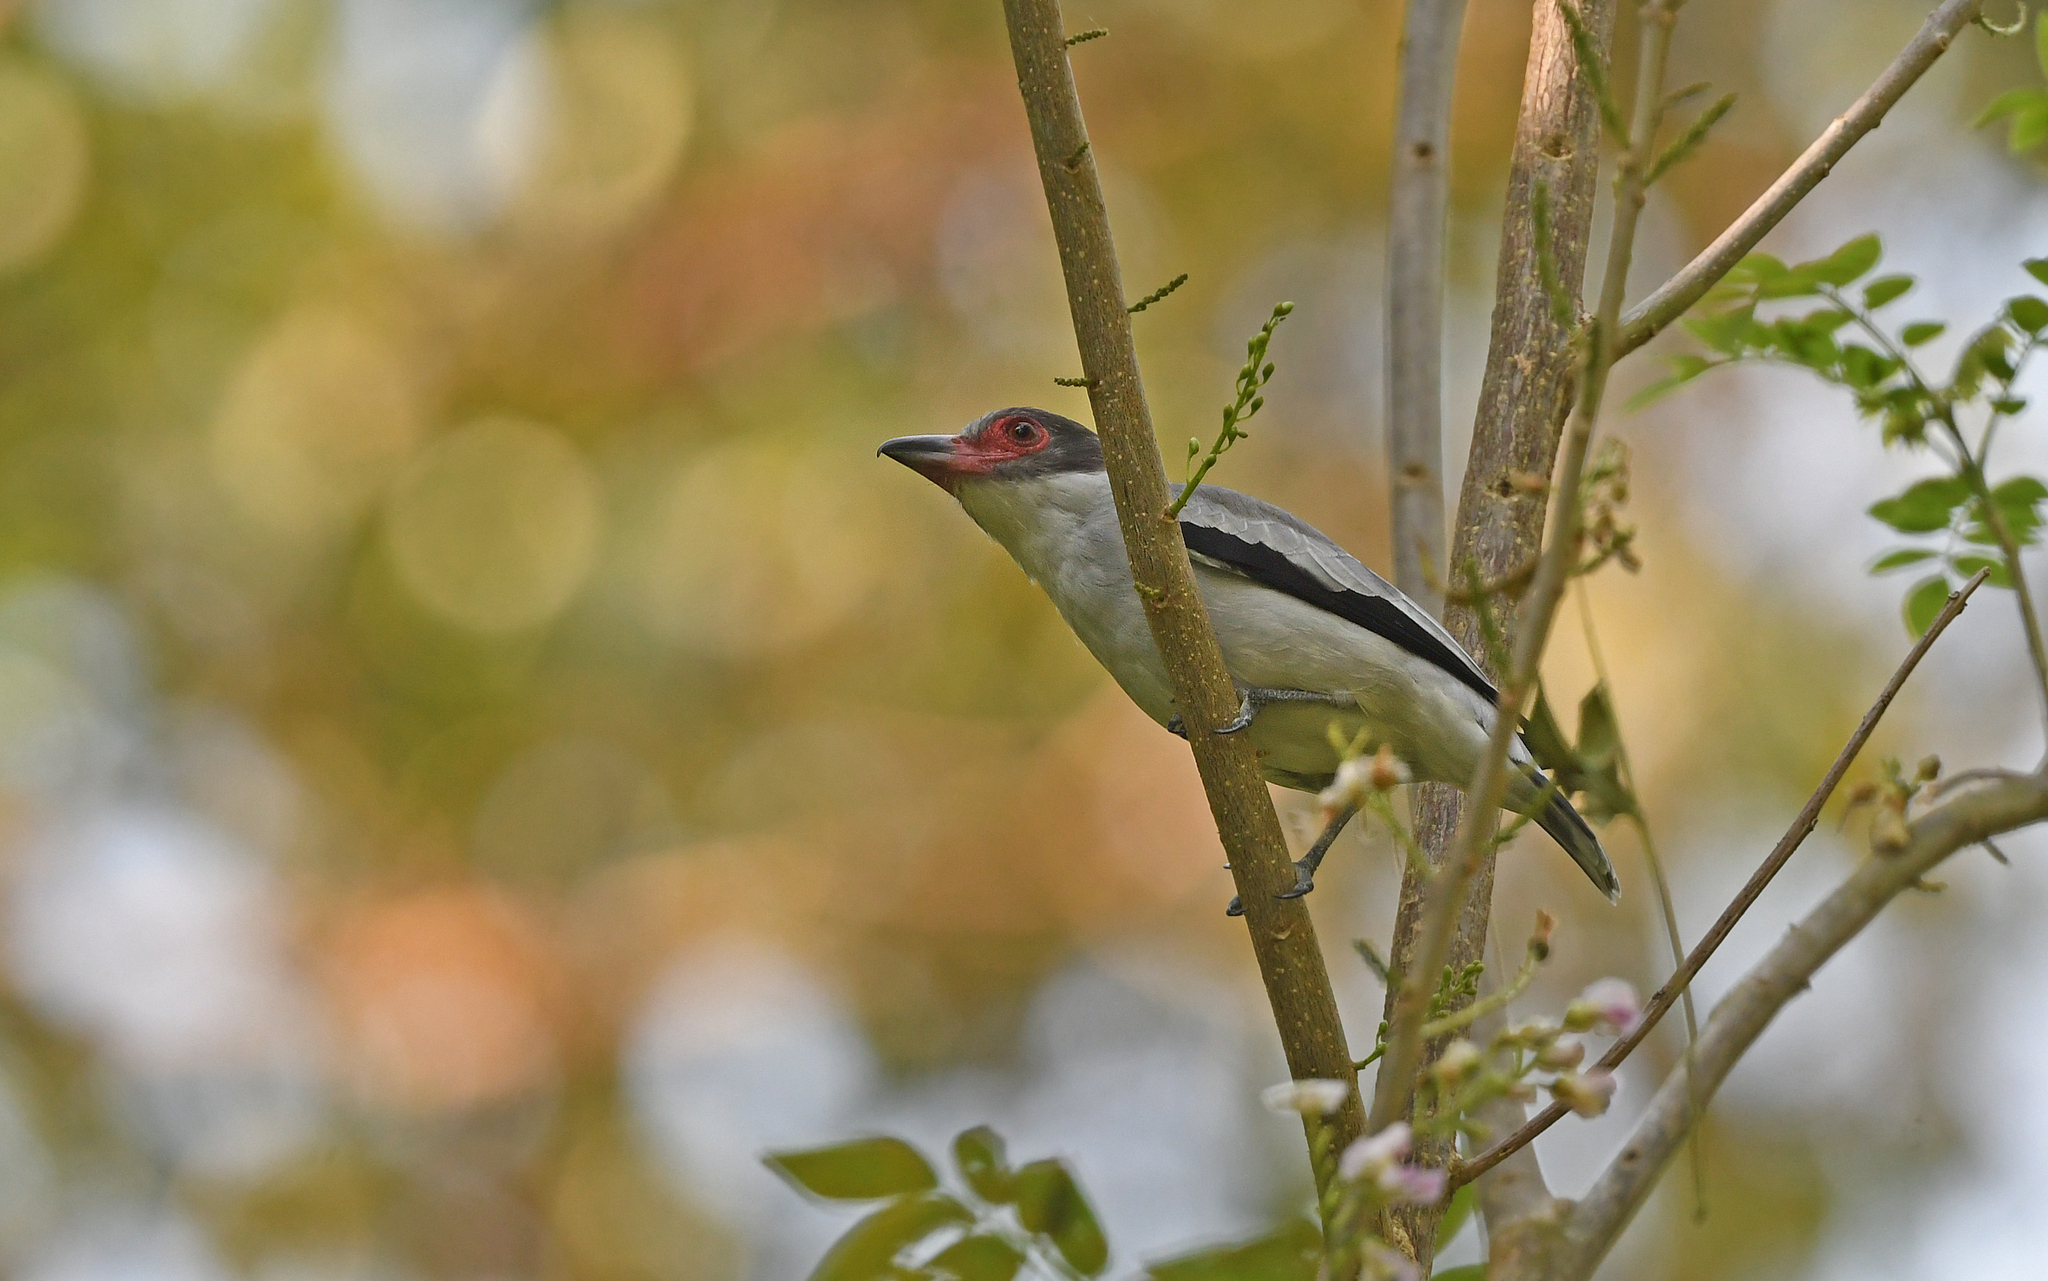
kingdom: Animalia
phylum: Chordata
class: Aves
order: Passeriformes
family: Cotingidae
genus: Tityra
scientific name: Tityra semifasciata
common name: Masked tityra
